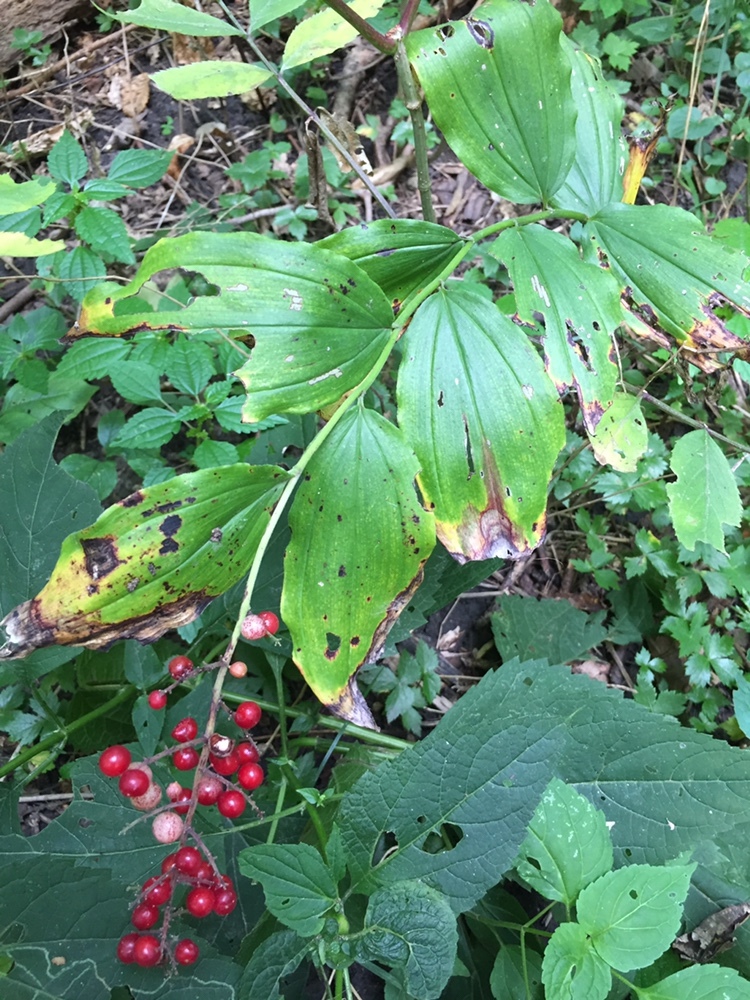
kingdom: Plantae
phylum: Tracheophyta
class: Liliopsida
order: Asparagales
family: Asparagaceae
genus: Maianthemum
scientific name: Maianthemum racemosum
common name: False spikenard
